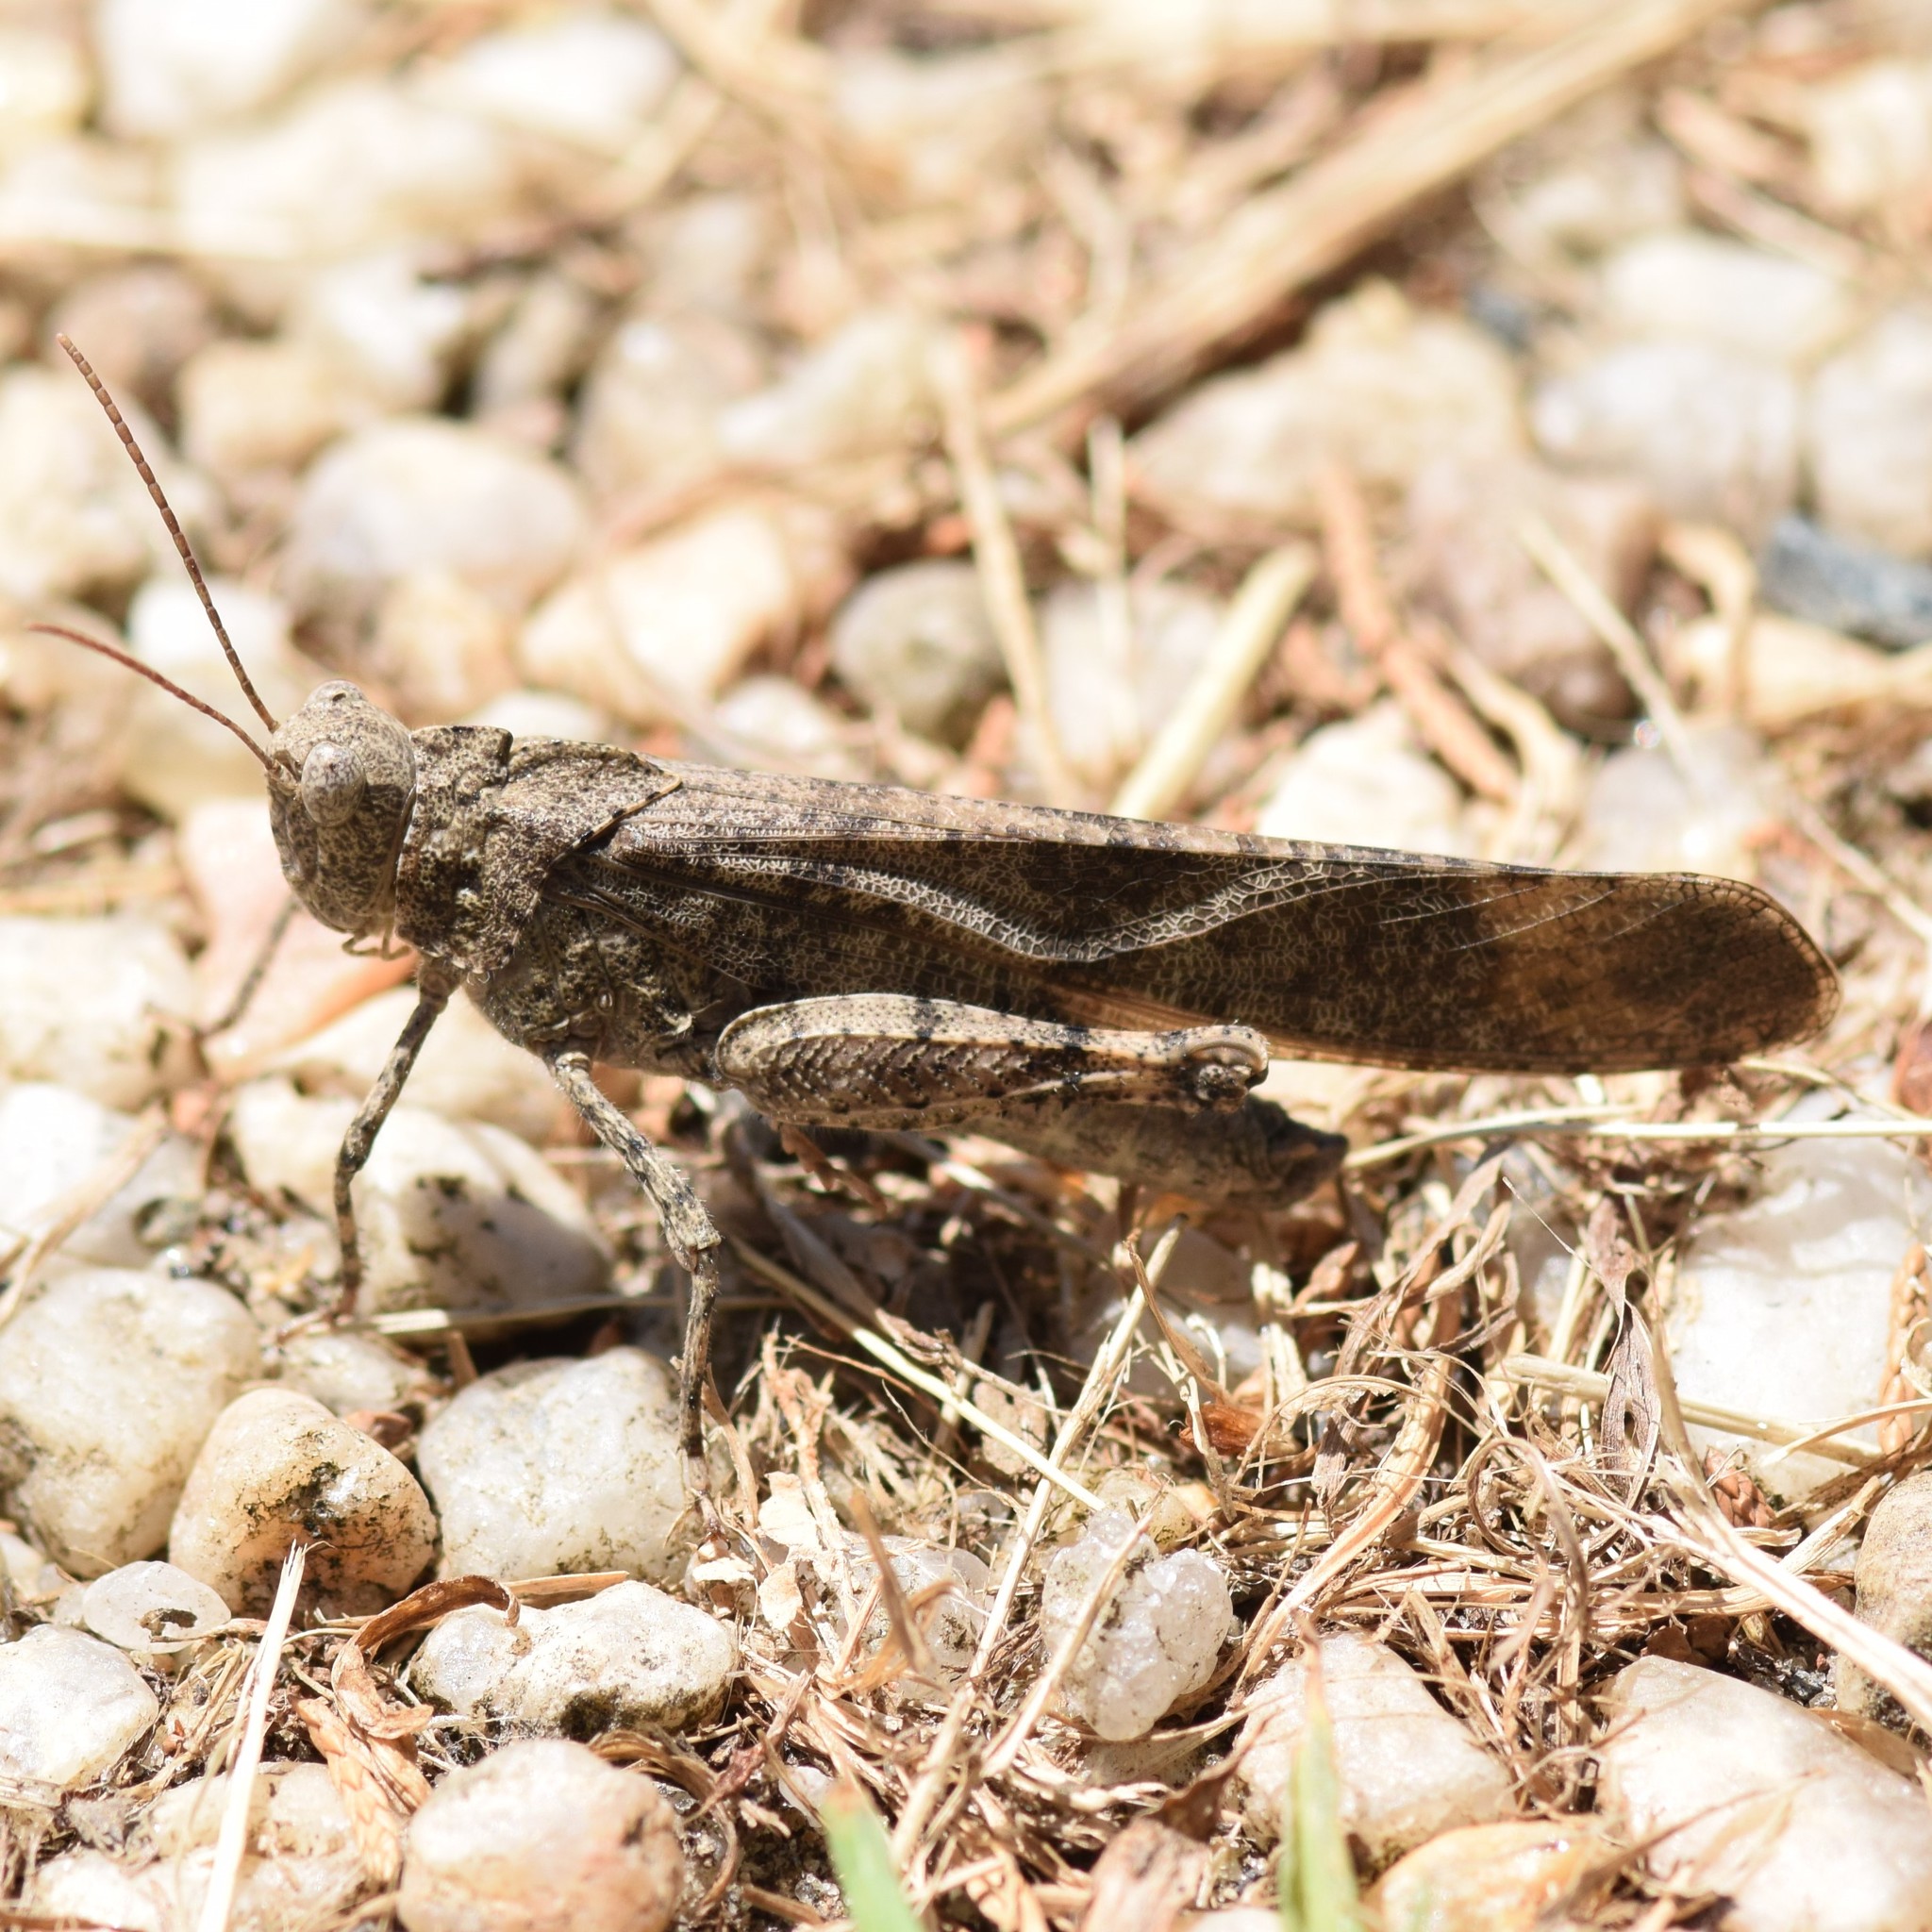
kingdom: Animalia
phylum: Arthropoda
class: Insecta
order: Orthoptera
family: Acrididae
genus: Dissosteira
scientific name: Dissosteira carolina
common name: Carolina grasshopper
